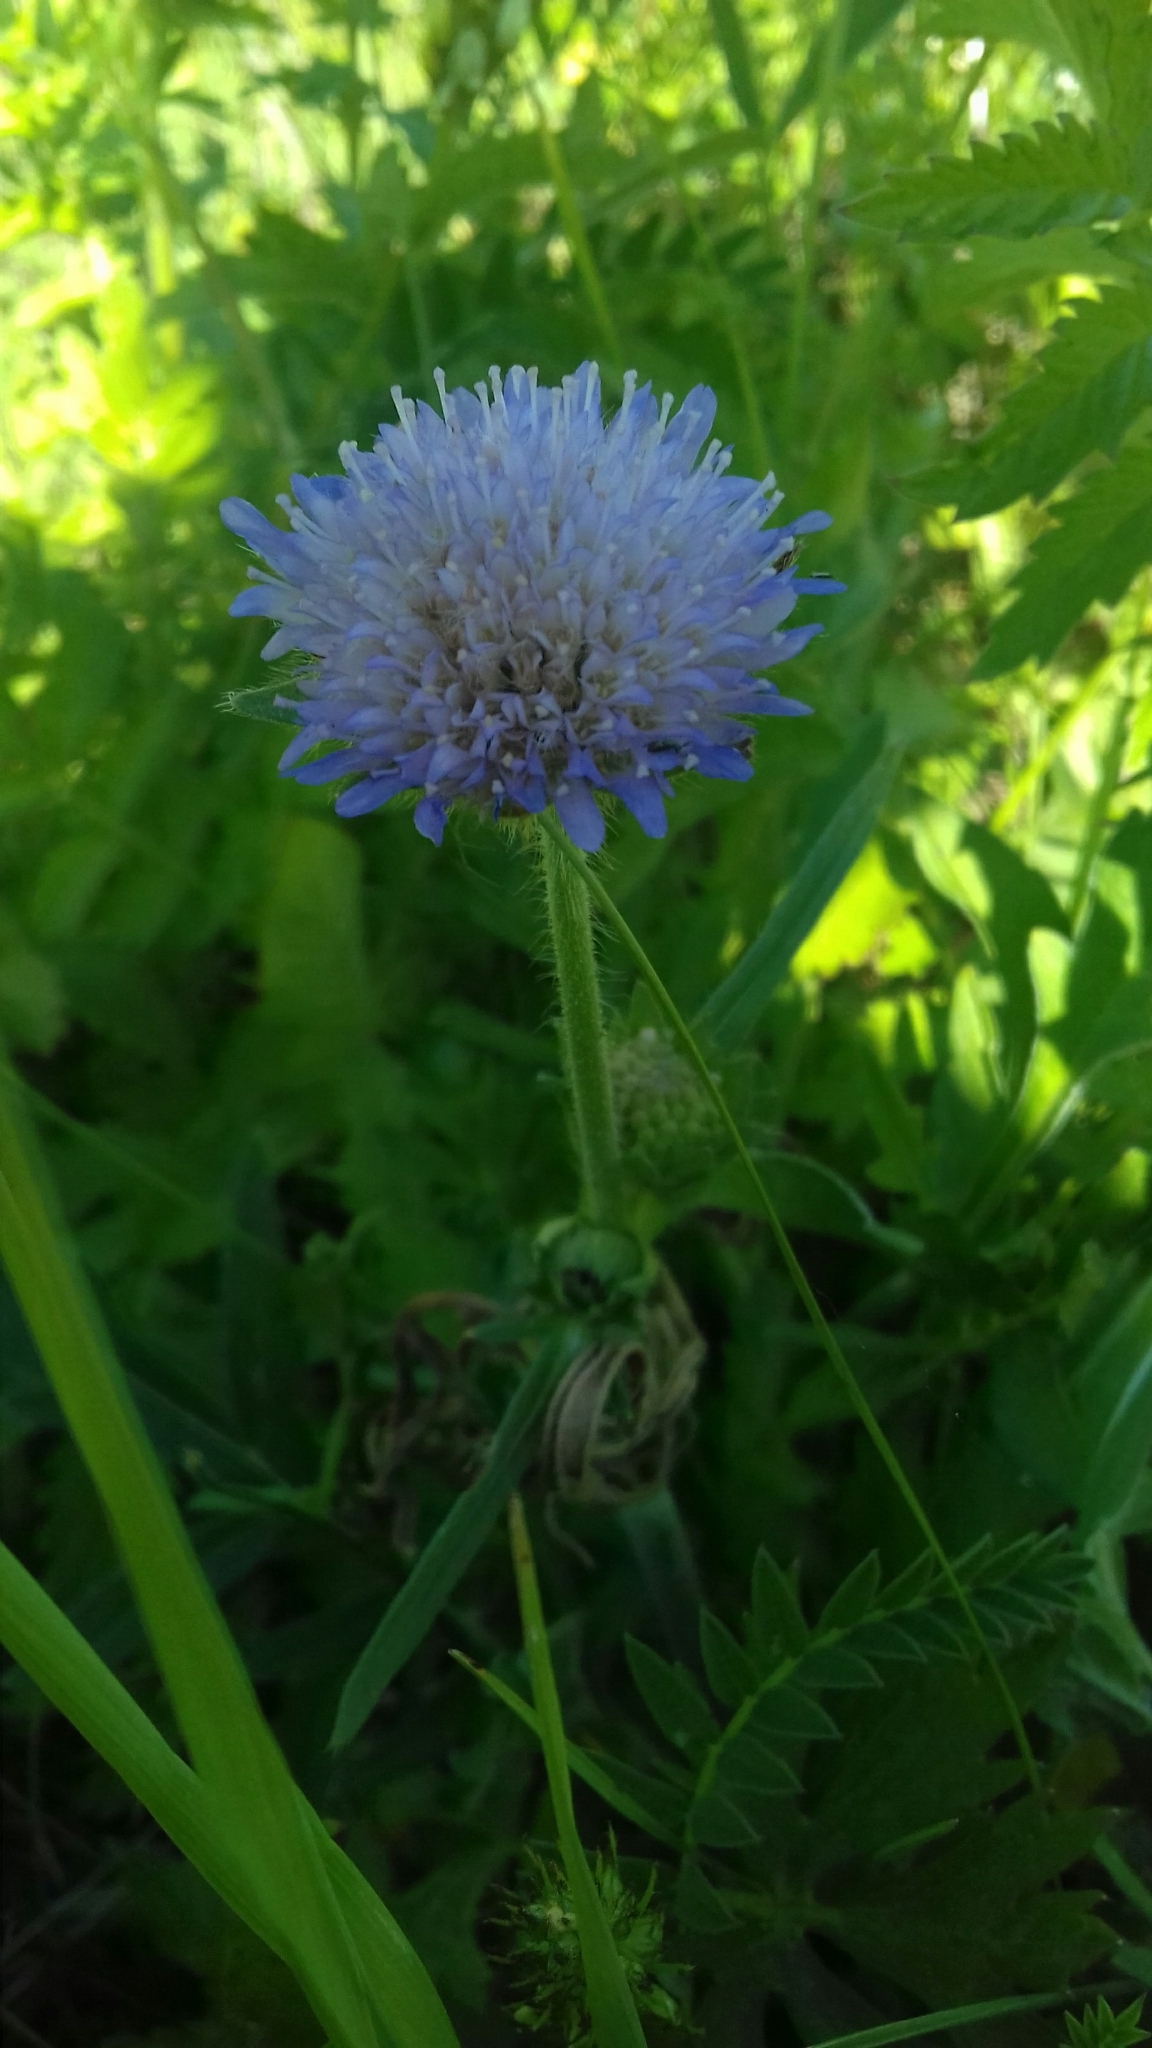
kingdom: Plantae
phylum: Tracheophyta
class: Magnoliopsida
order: Dipsacales
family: Caprifoliaceae
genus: Knautia
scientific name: Knautia arvensis
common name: Field scabiosa
